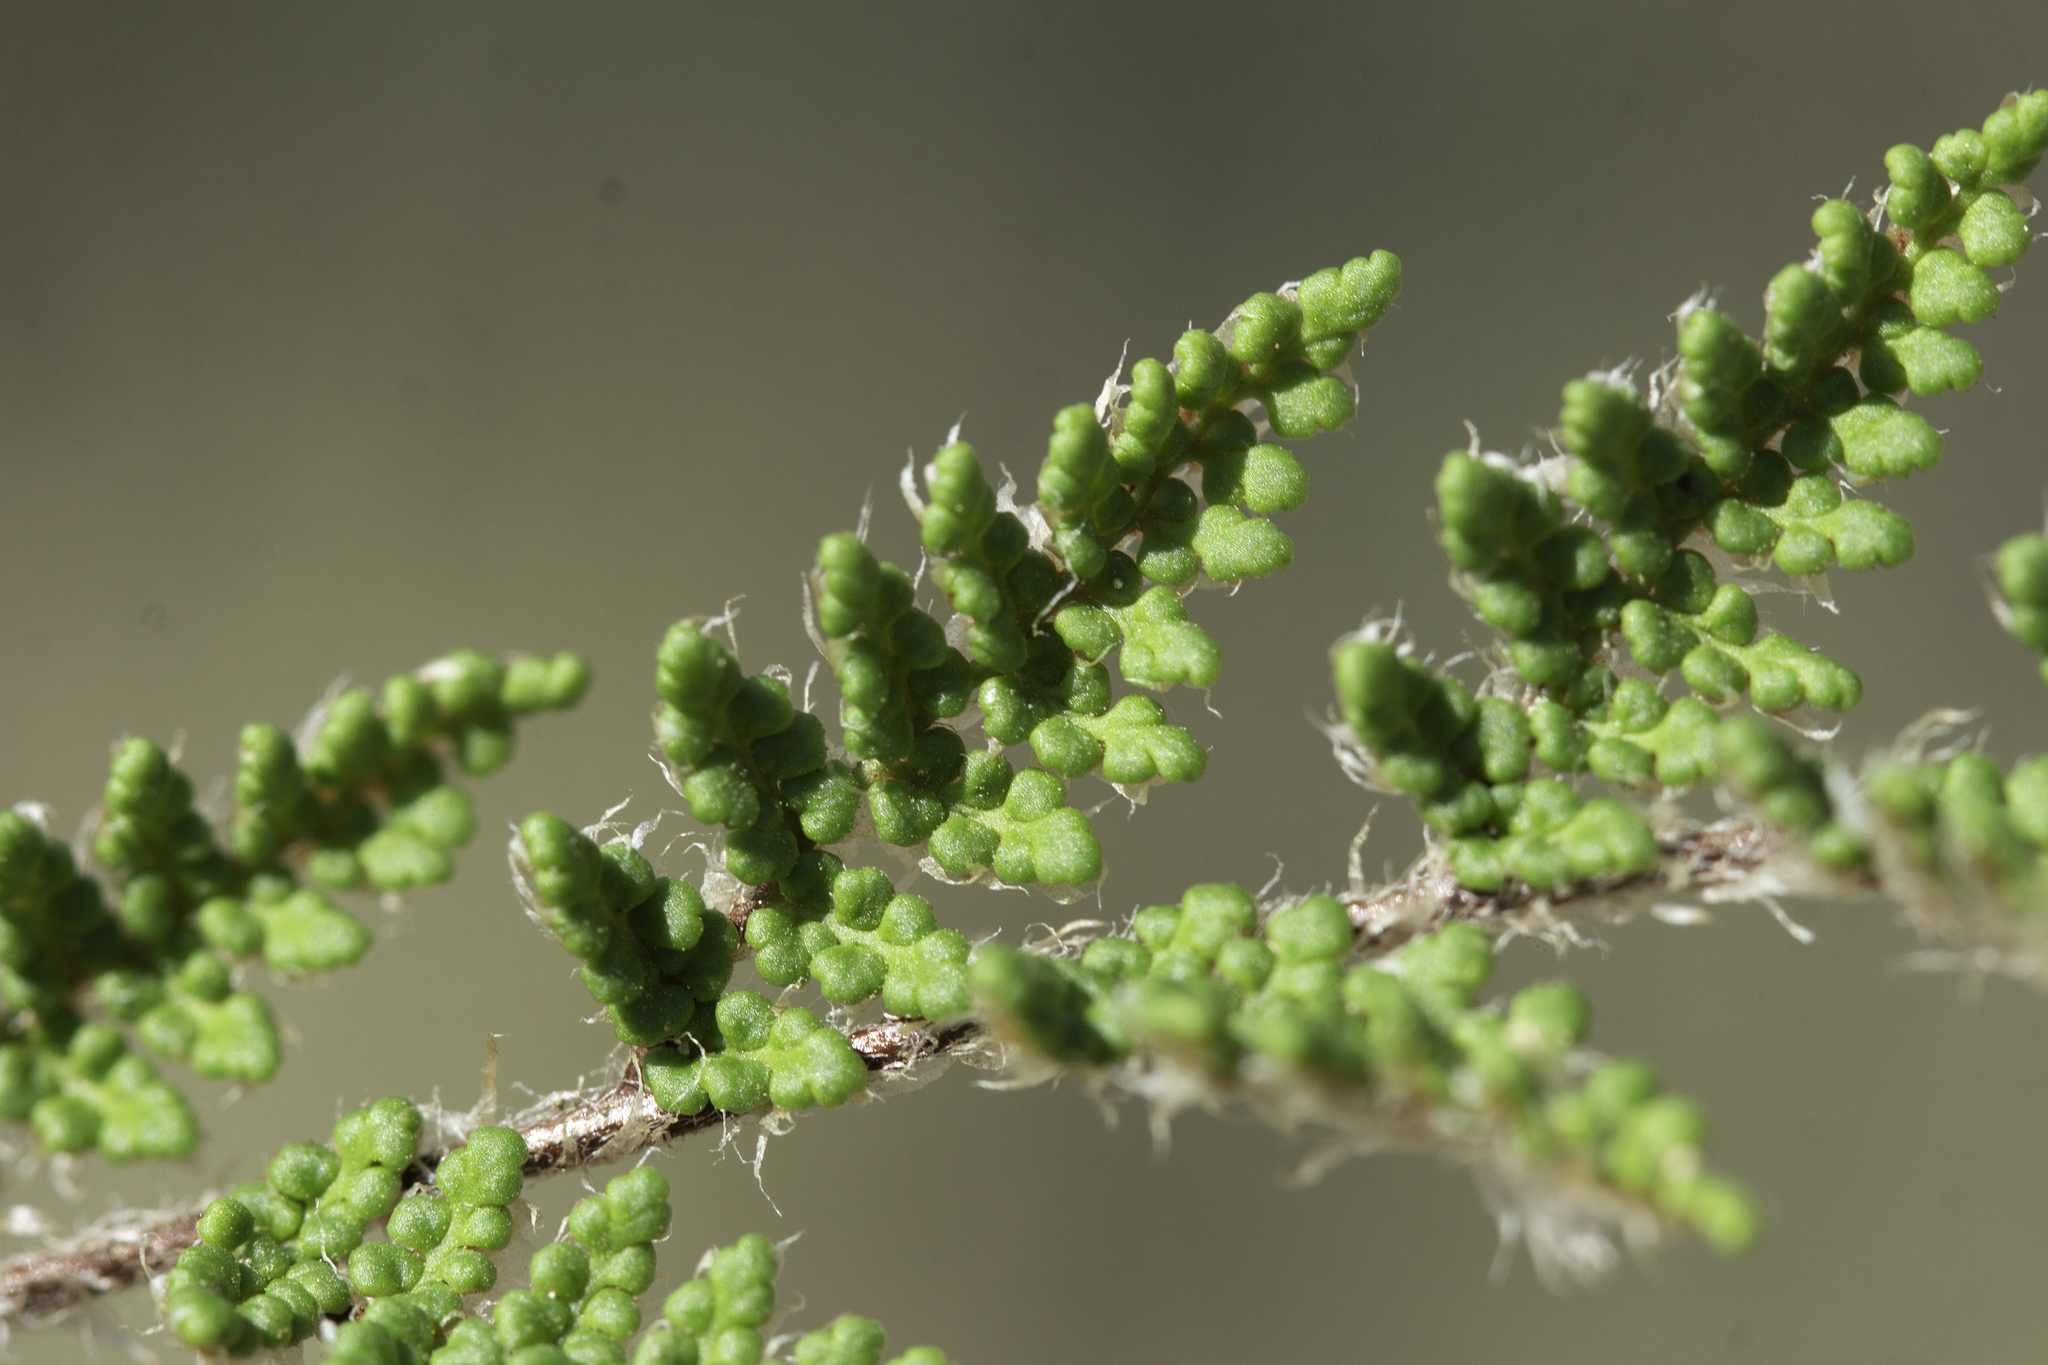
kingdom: Plantae
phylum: Tracheophyta
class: Polypodiopsida
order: Polypodiales
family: Pteridaceae
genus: Myriopteris
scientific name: Myriopteris fendleri
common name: Fendler's lip fern
